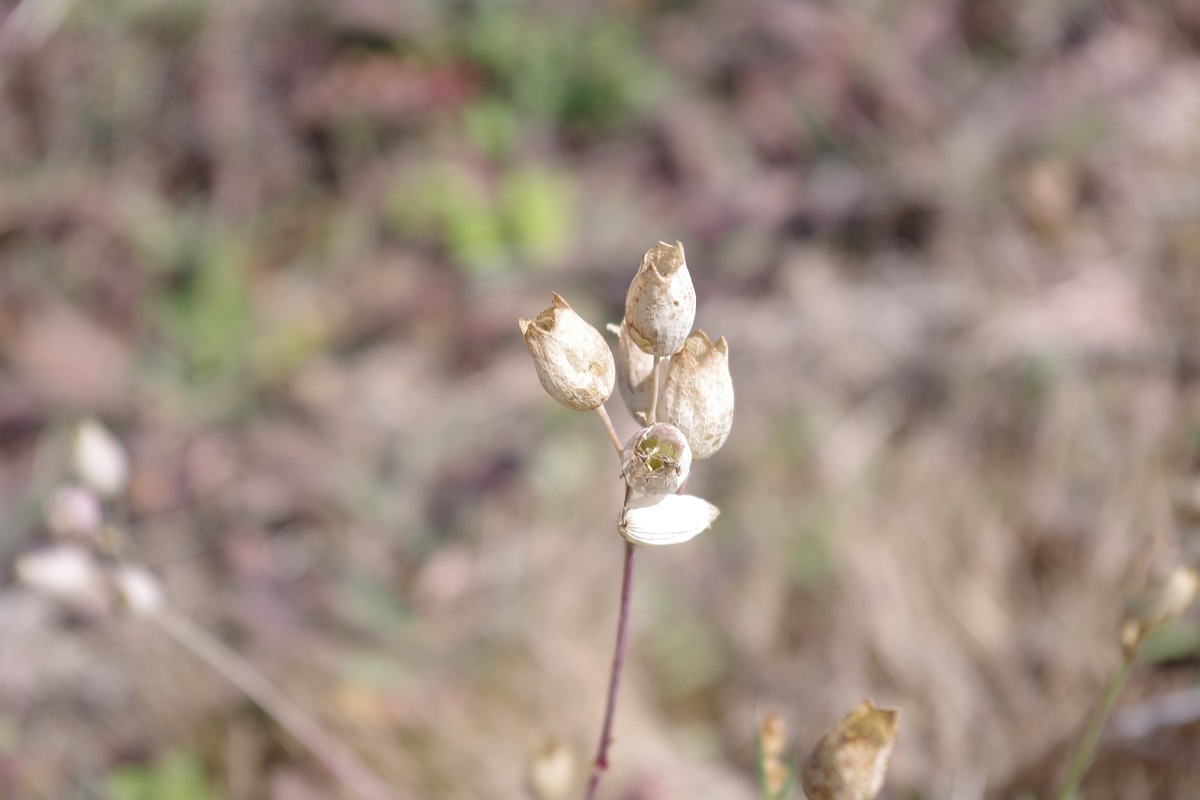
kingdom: Plantae
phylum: Tracheophyta
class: Magnoliopsida
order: Caryophyllales
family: Caryophyllaceae
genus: Silene
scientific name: Silene vulgaris
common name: Bladder campion
